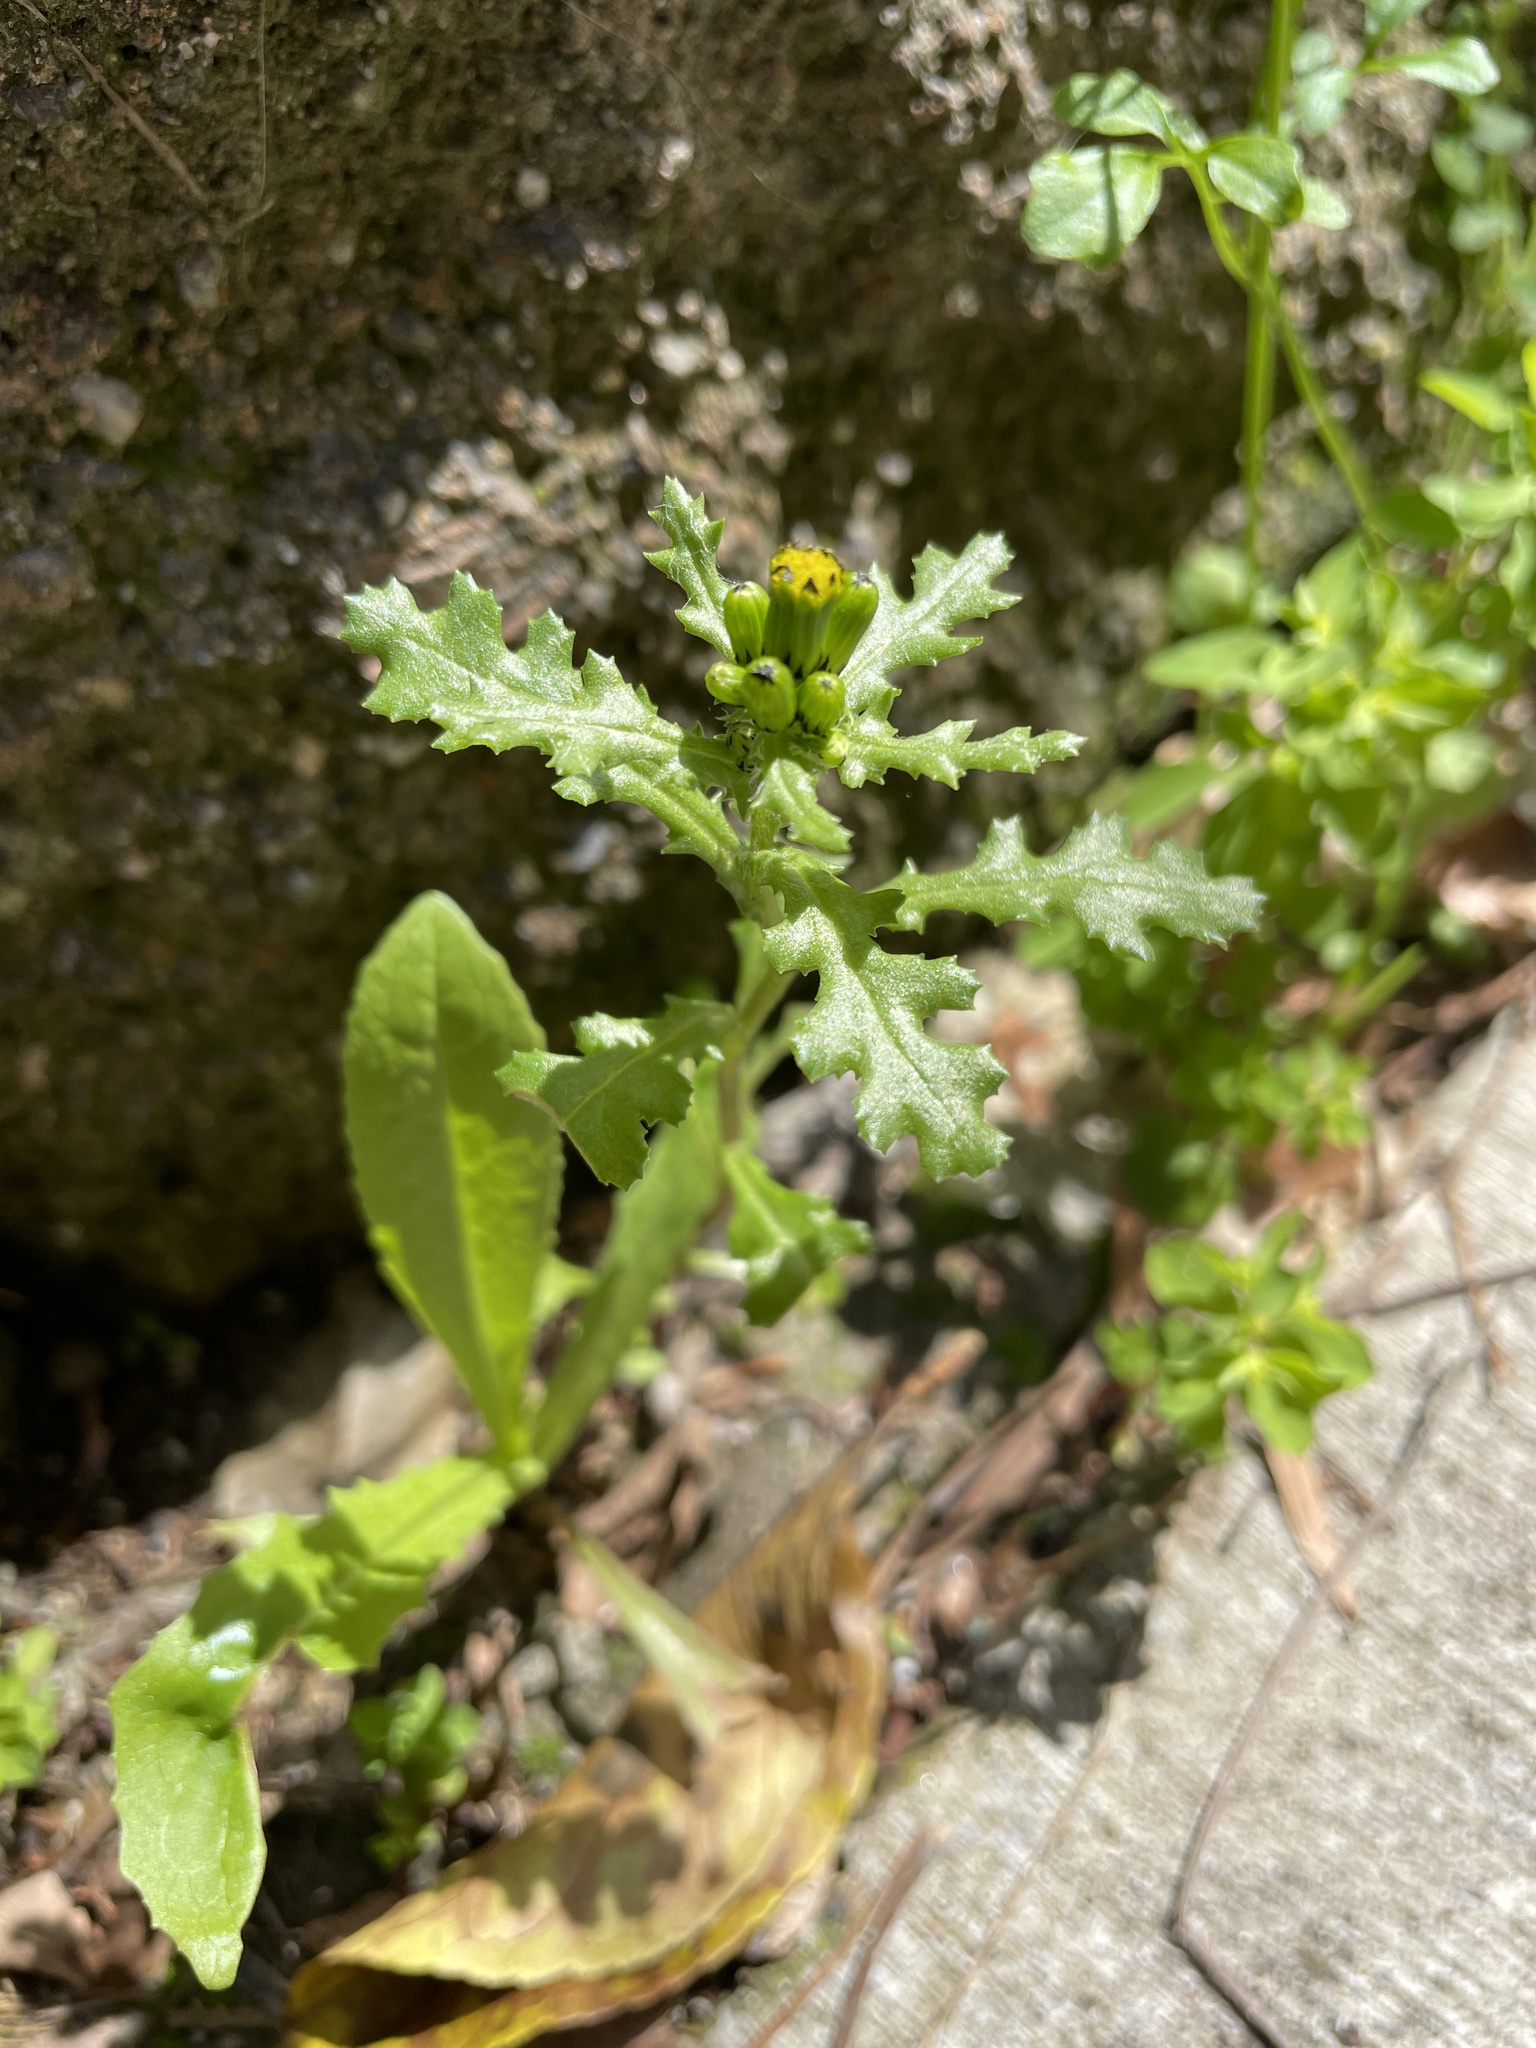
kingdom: Plantae
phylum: Tracheophyta
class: Magnoliopsida
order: Asterales
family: Asteraceae
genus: Senecio
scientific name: Senecio vulgaris
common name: Old-man-in-the-spring
